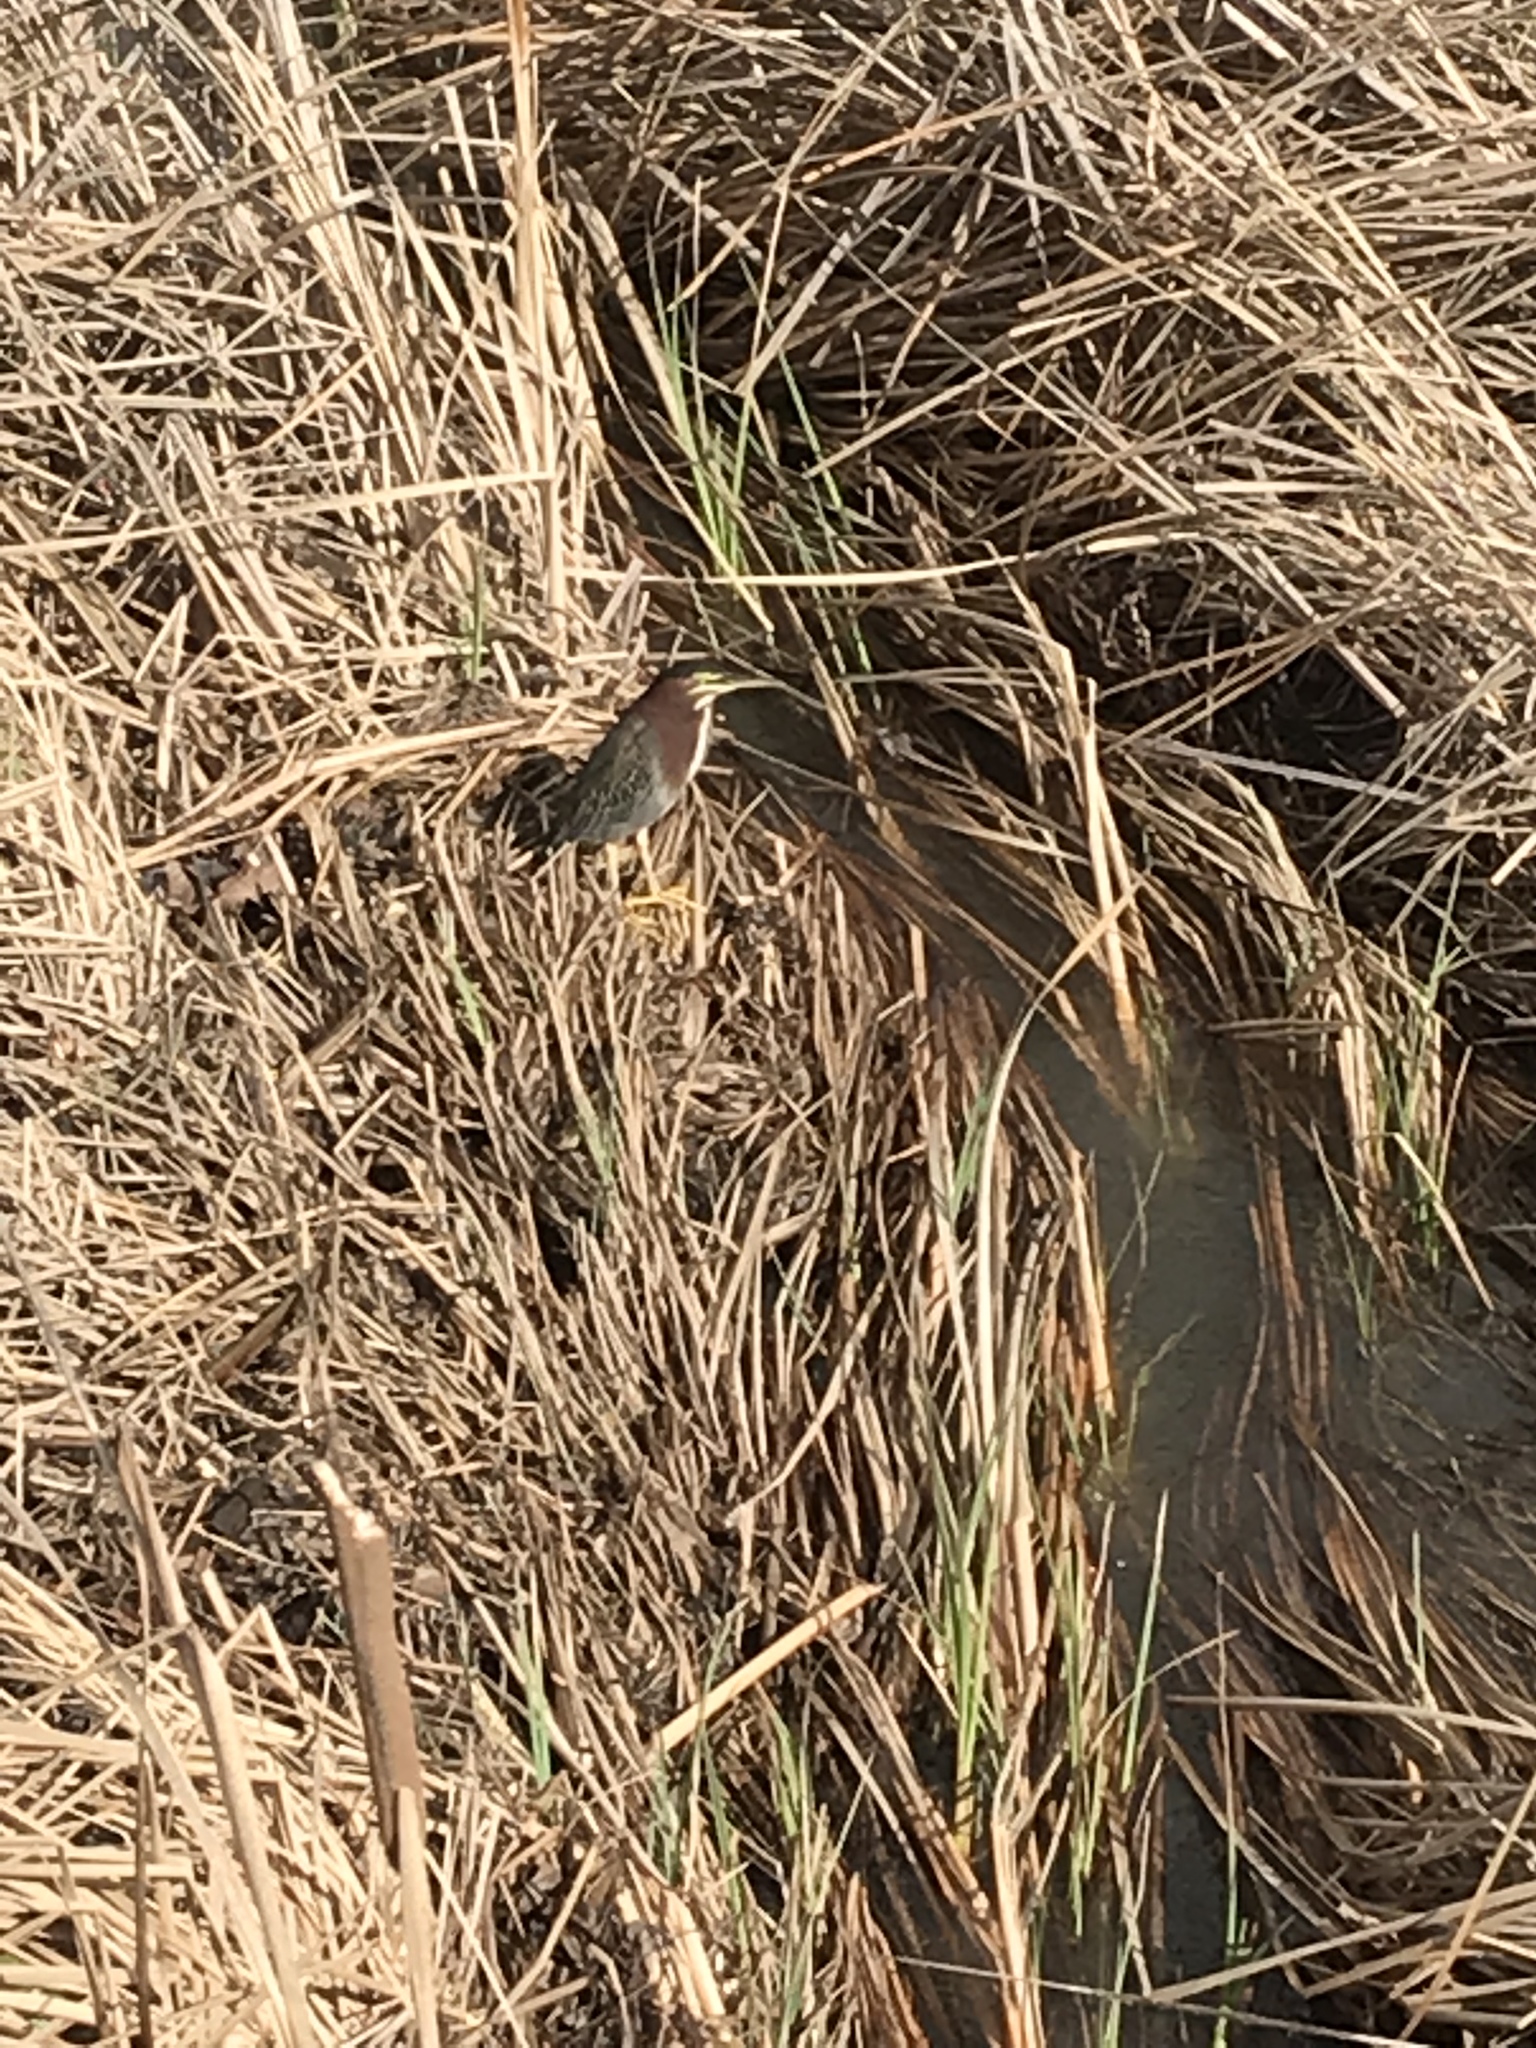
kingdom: Animalia
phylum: Chordata
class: Aves
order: Pelecaniformes
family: Ardeidae
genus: Butorides
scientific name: Butorides virescens
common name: Green heron
